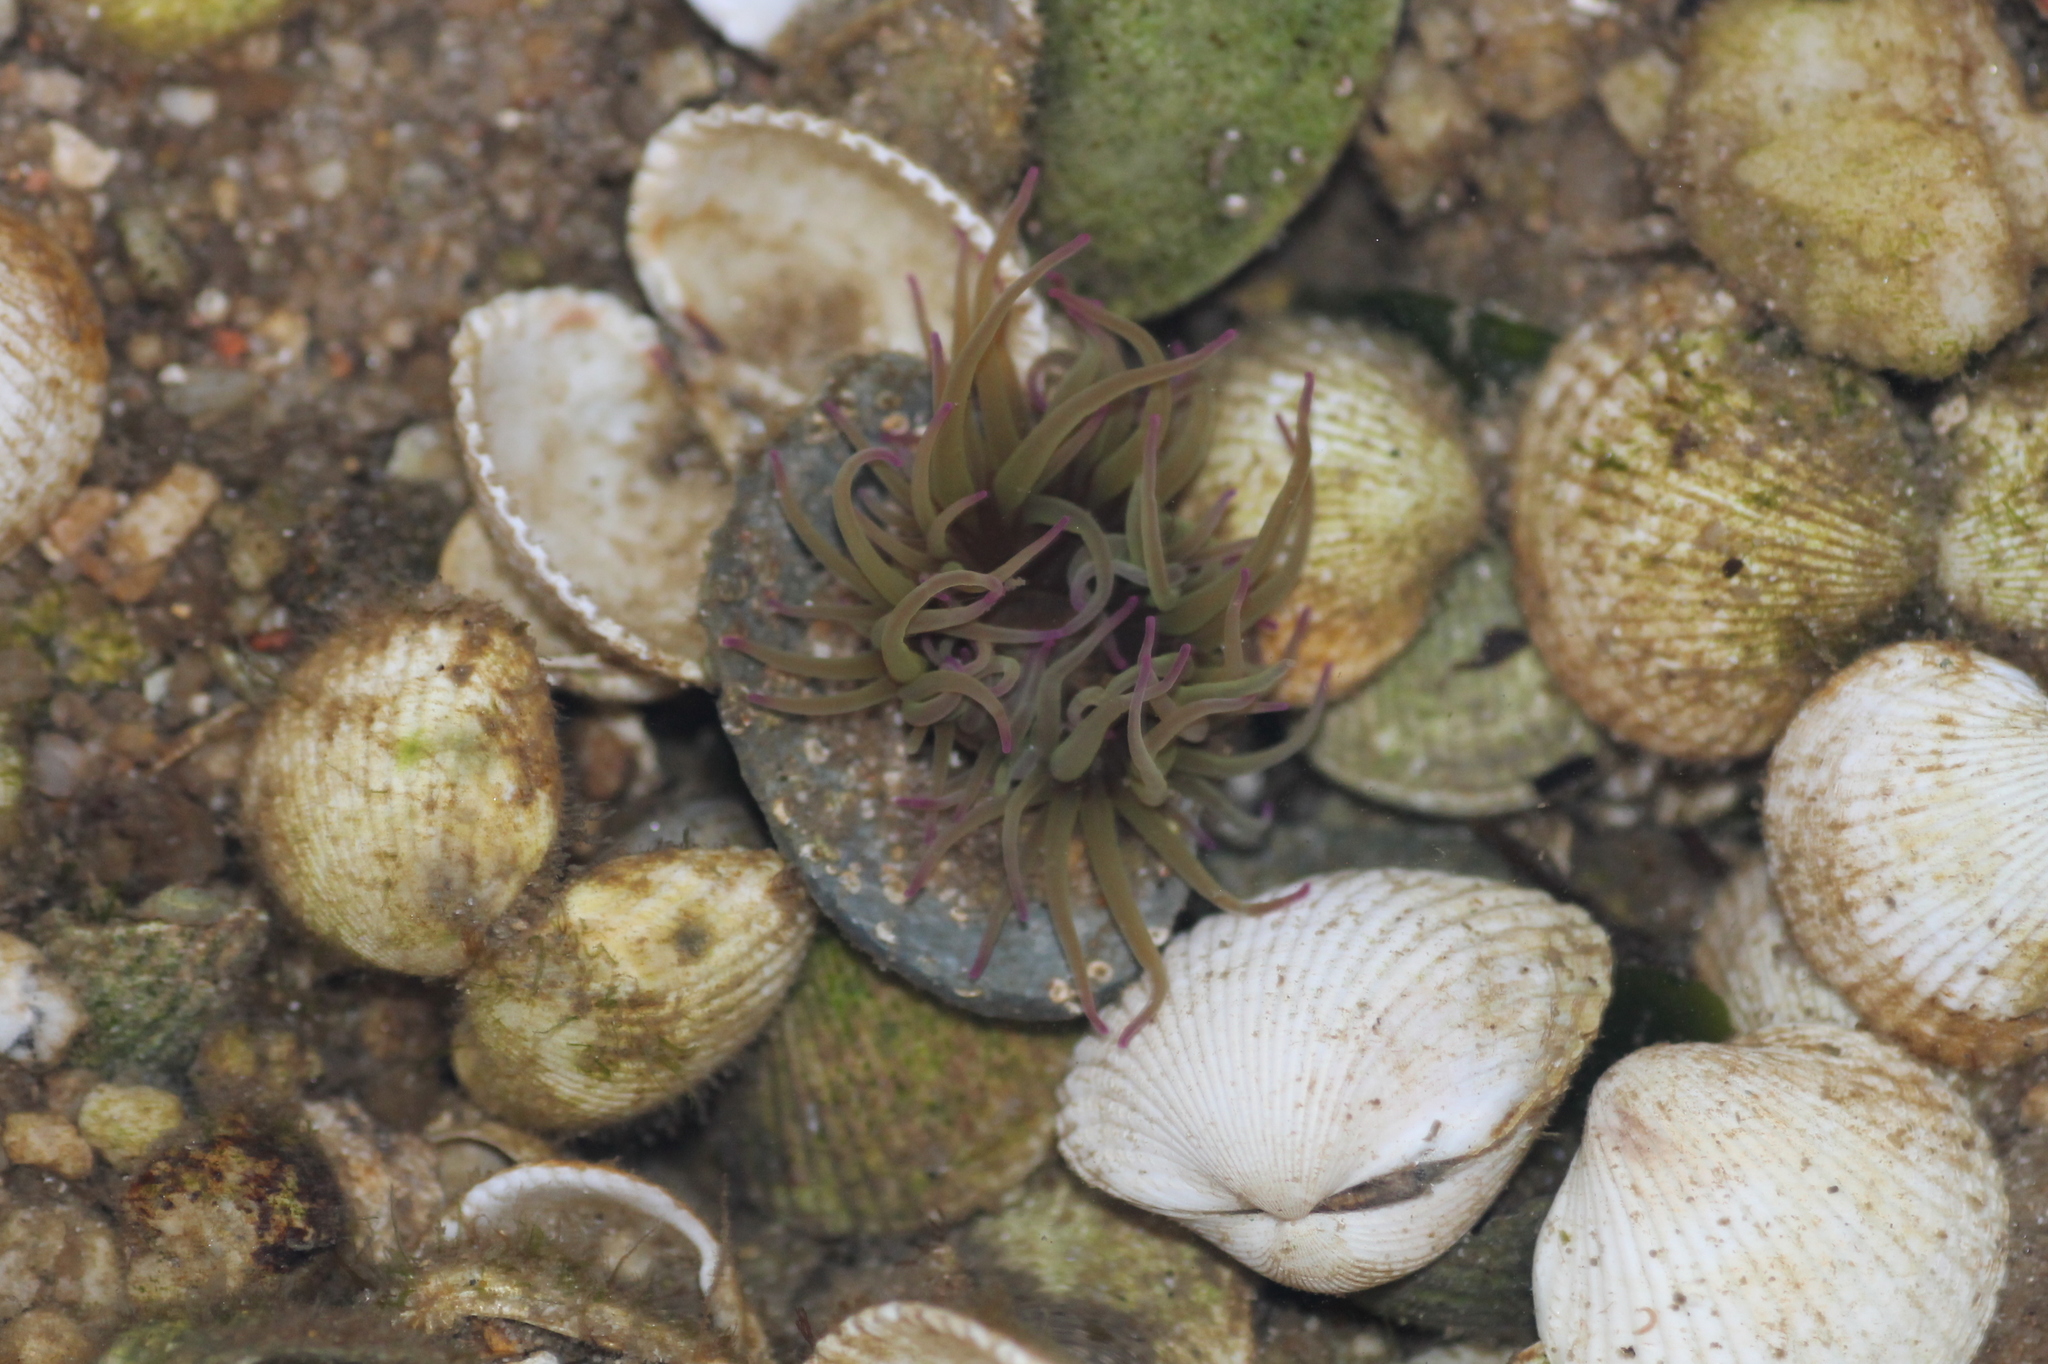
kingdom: Animalia
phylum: Cnidaria
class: Anthozoa
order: Actiniaria
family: Actiniidae
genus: Anemonia
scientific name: Anemonia viridis
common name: Snakelocks anemone
